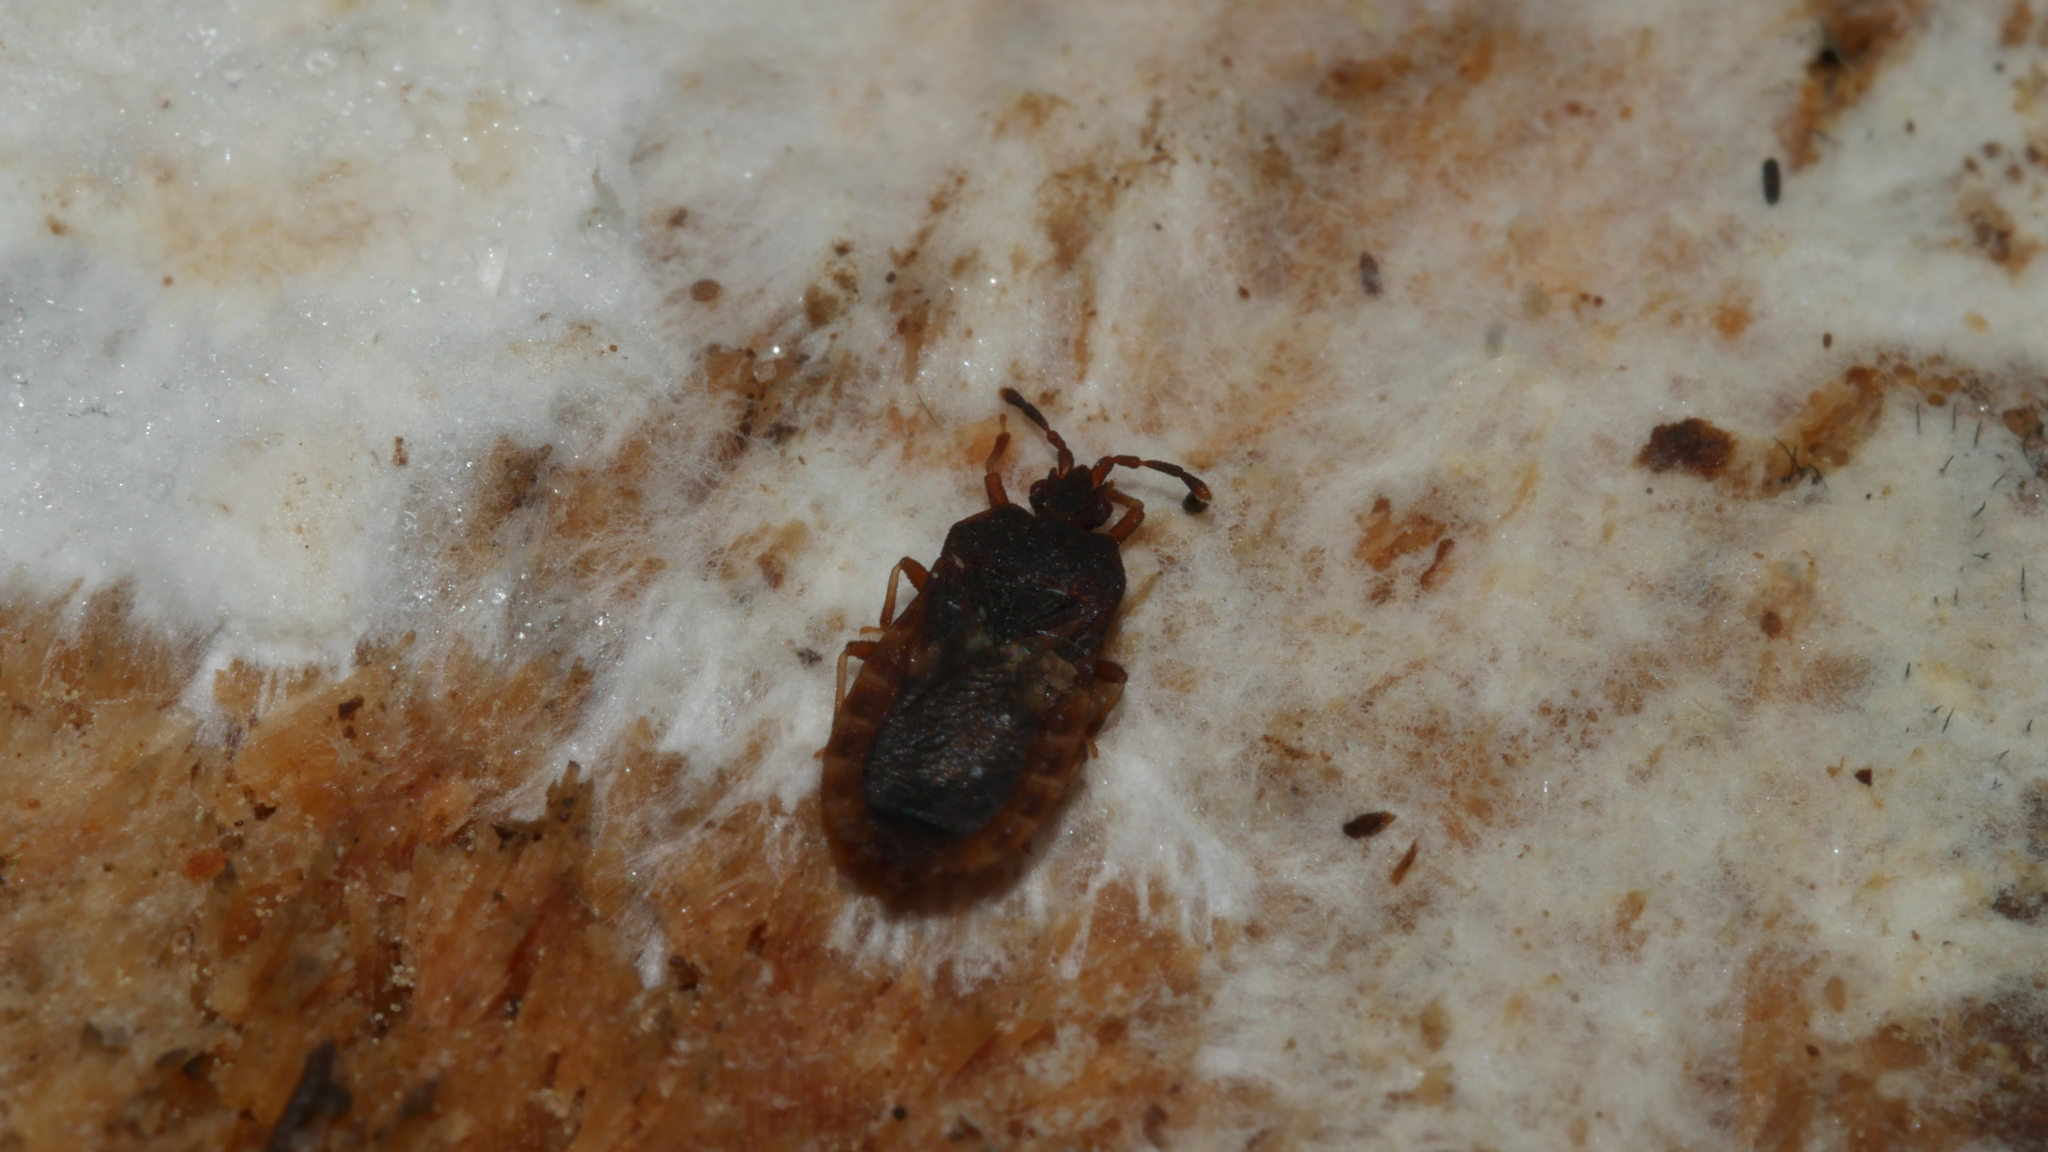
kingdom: Animalia
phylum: Arthropoda
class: Insecta
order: Hemiptera
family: Aradidae
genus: Notapictinus
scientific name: Notapictinus aurivillii
